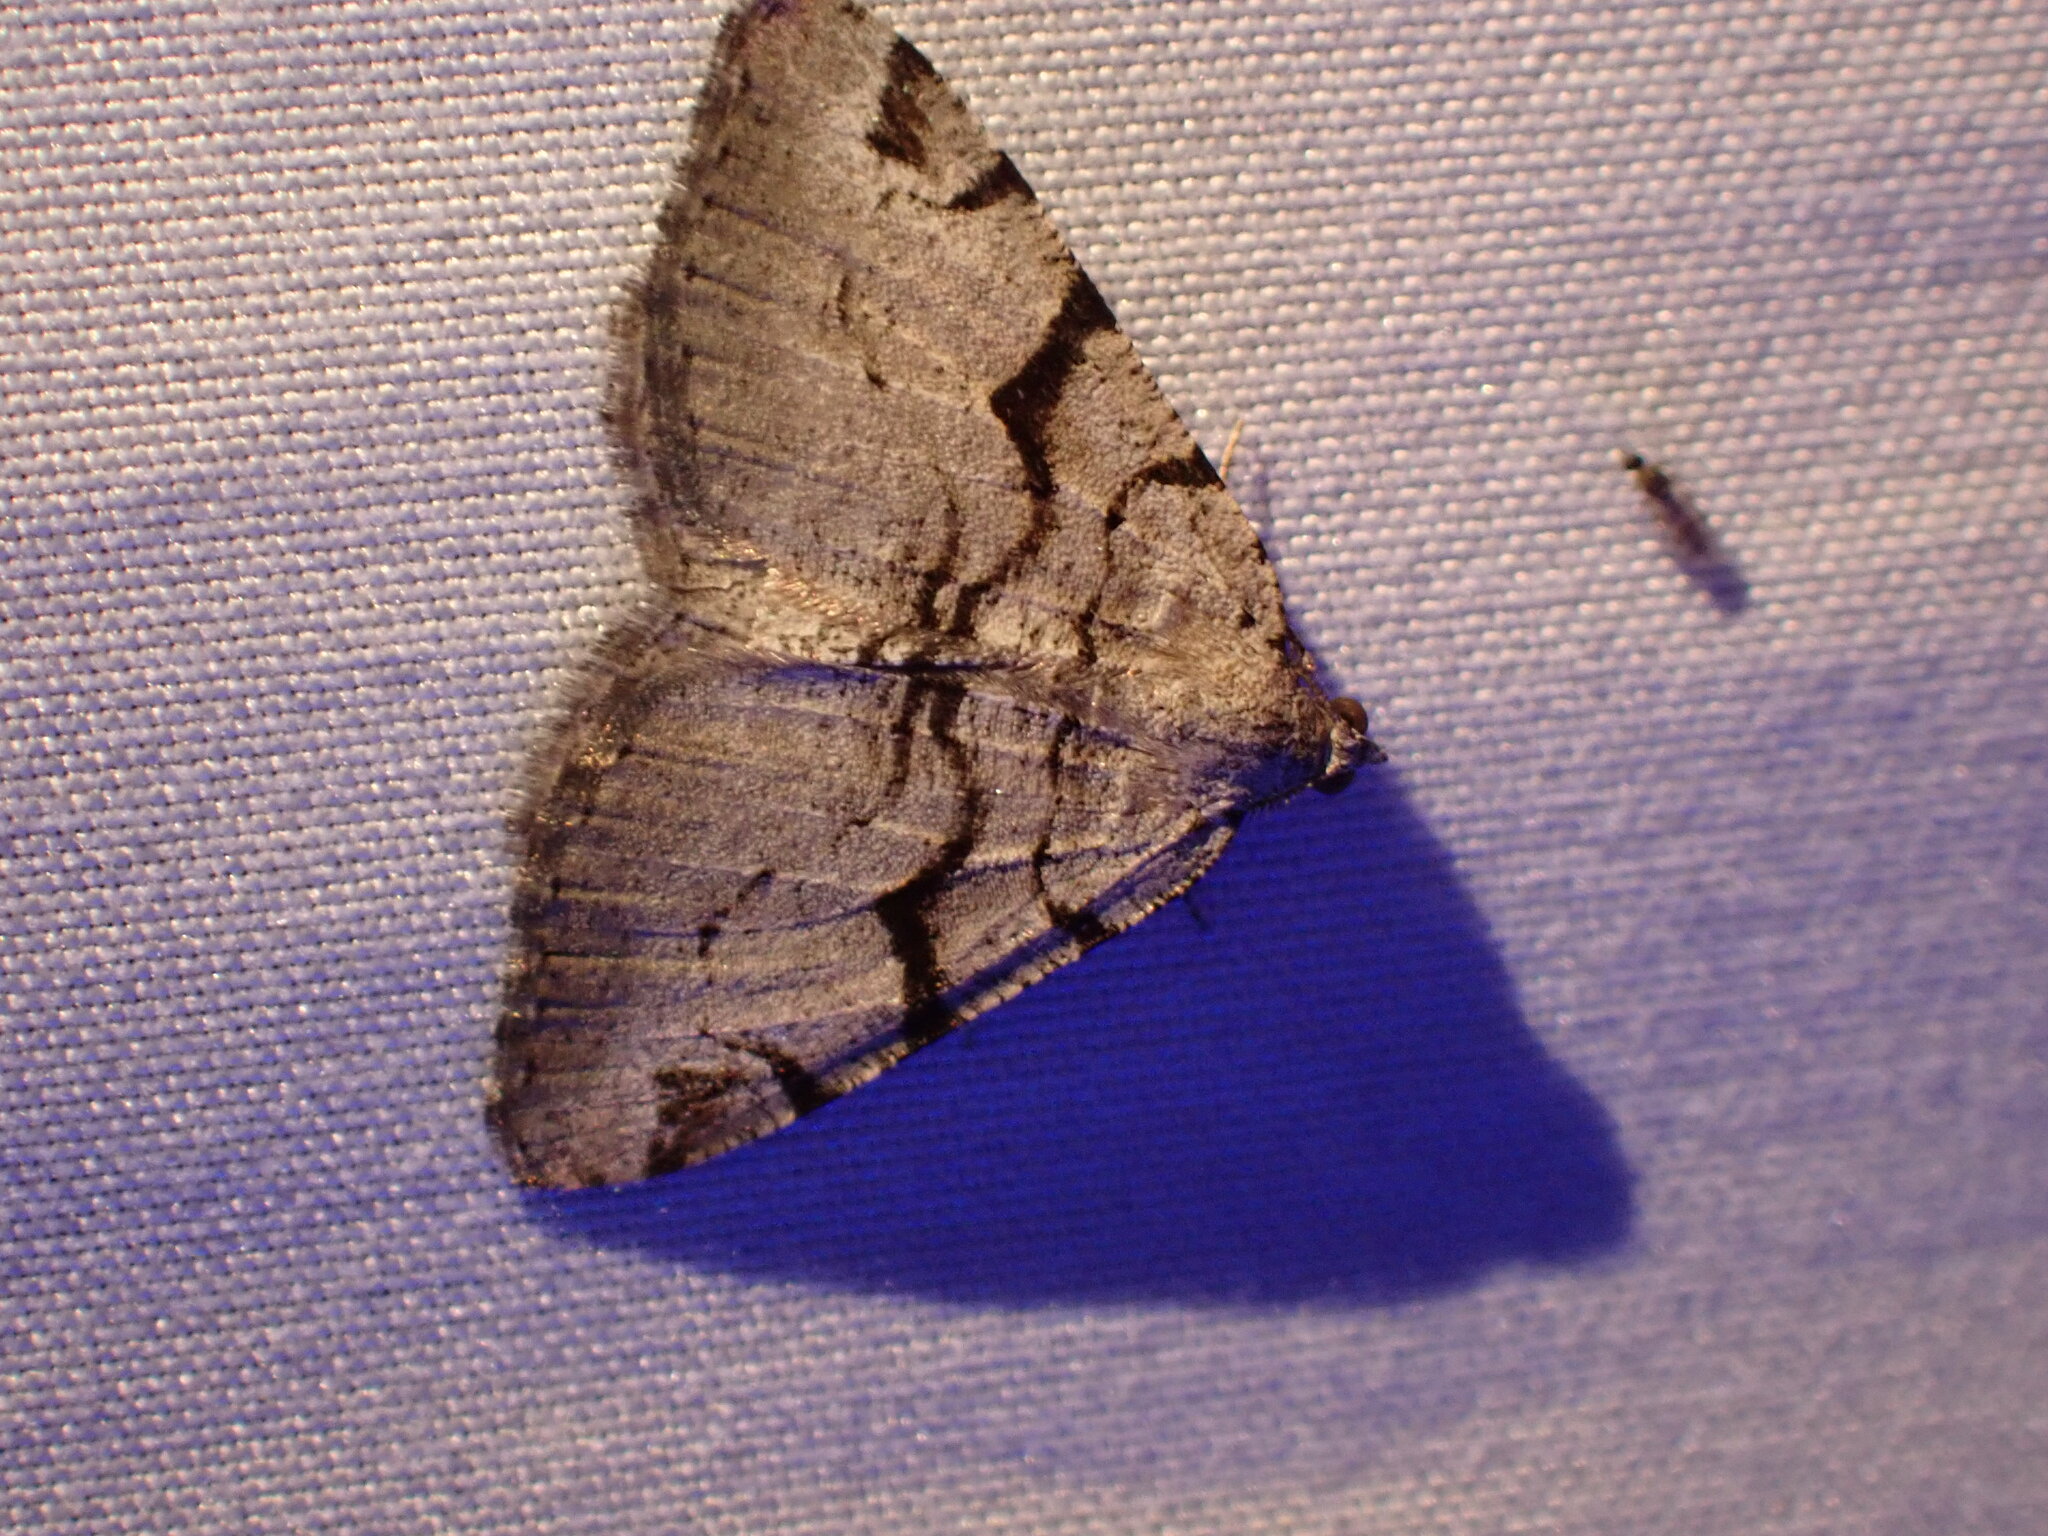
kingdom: Animalia
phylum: Arthropoda
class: Insecta
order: Lepidoptera
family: Geometridae
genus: Macaria
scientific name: Macaria bitactata
